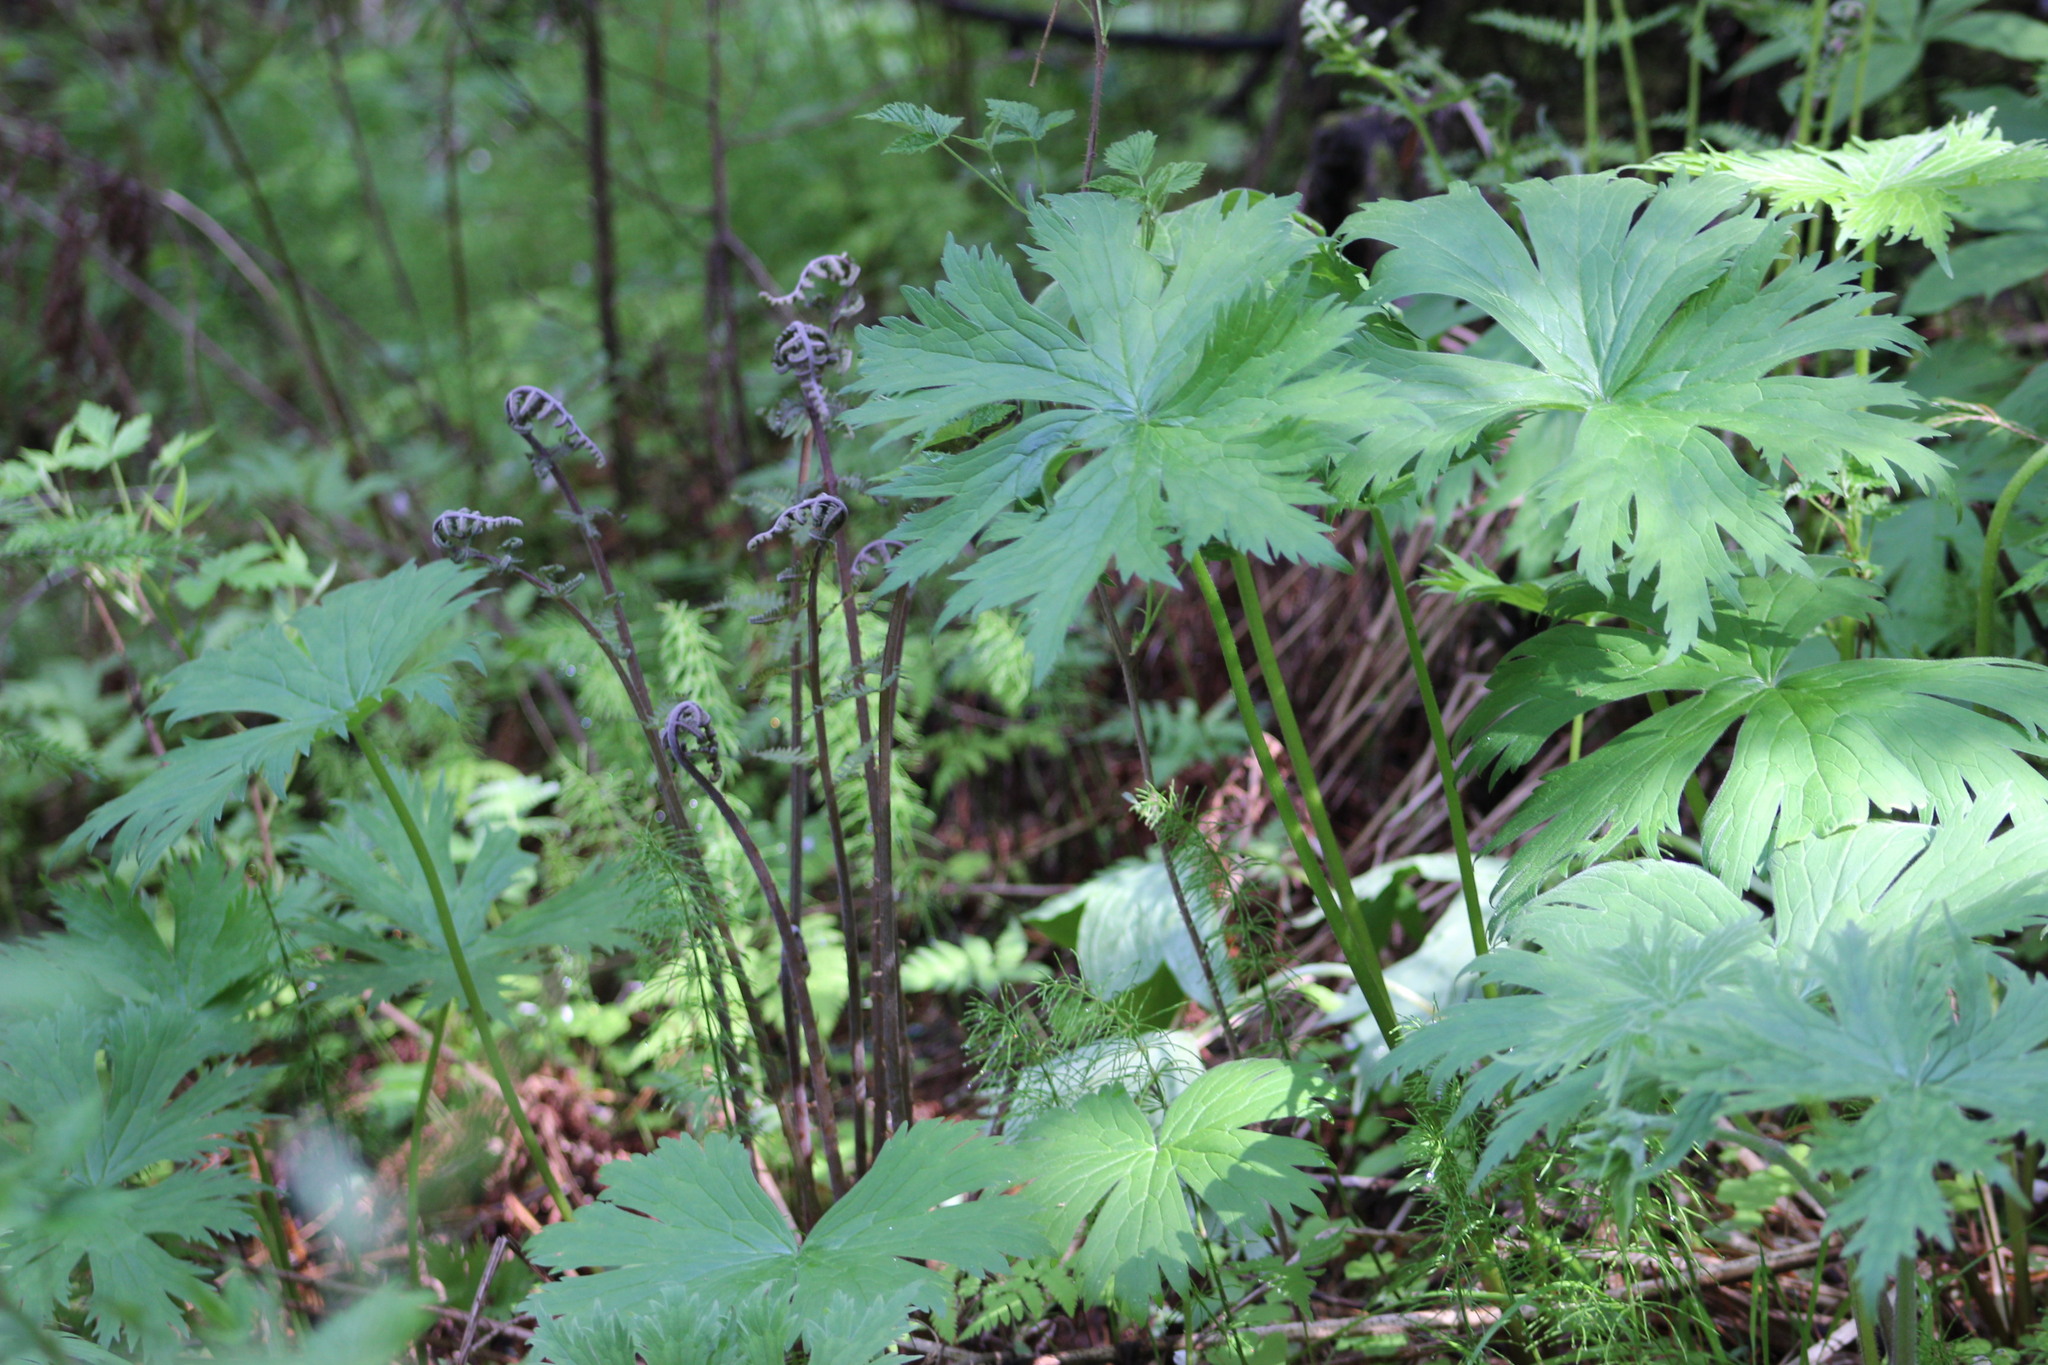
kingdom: Plantae
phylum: Tracheophyta
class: Magnoliopsida
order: Ranunculales
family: Ranunculaceae
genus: Aconitum
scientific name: Aconitum septentrionale
